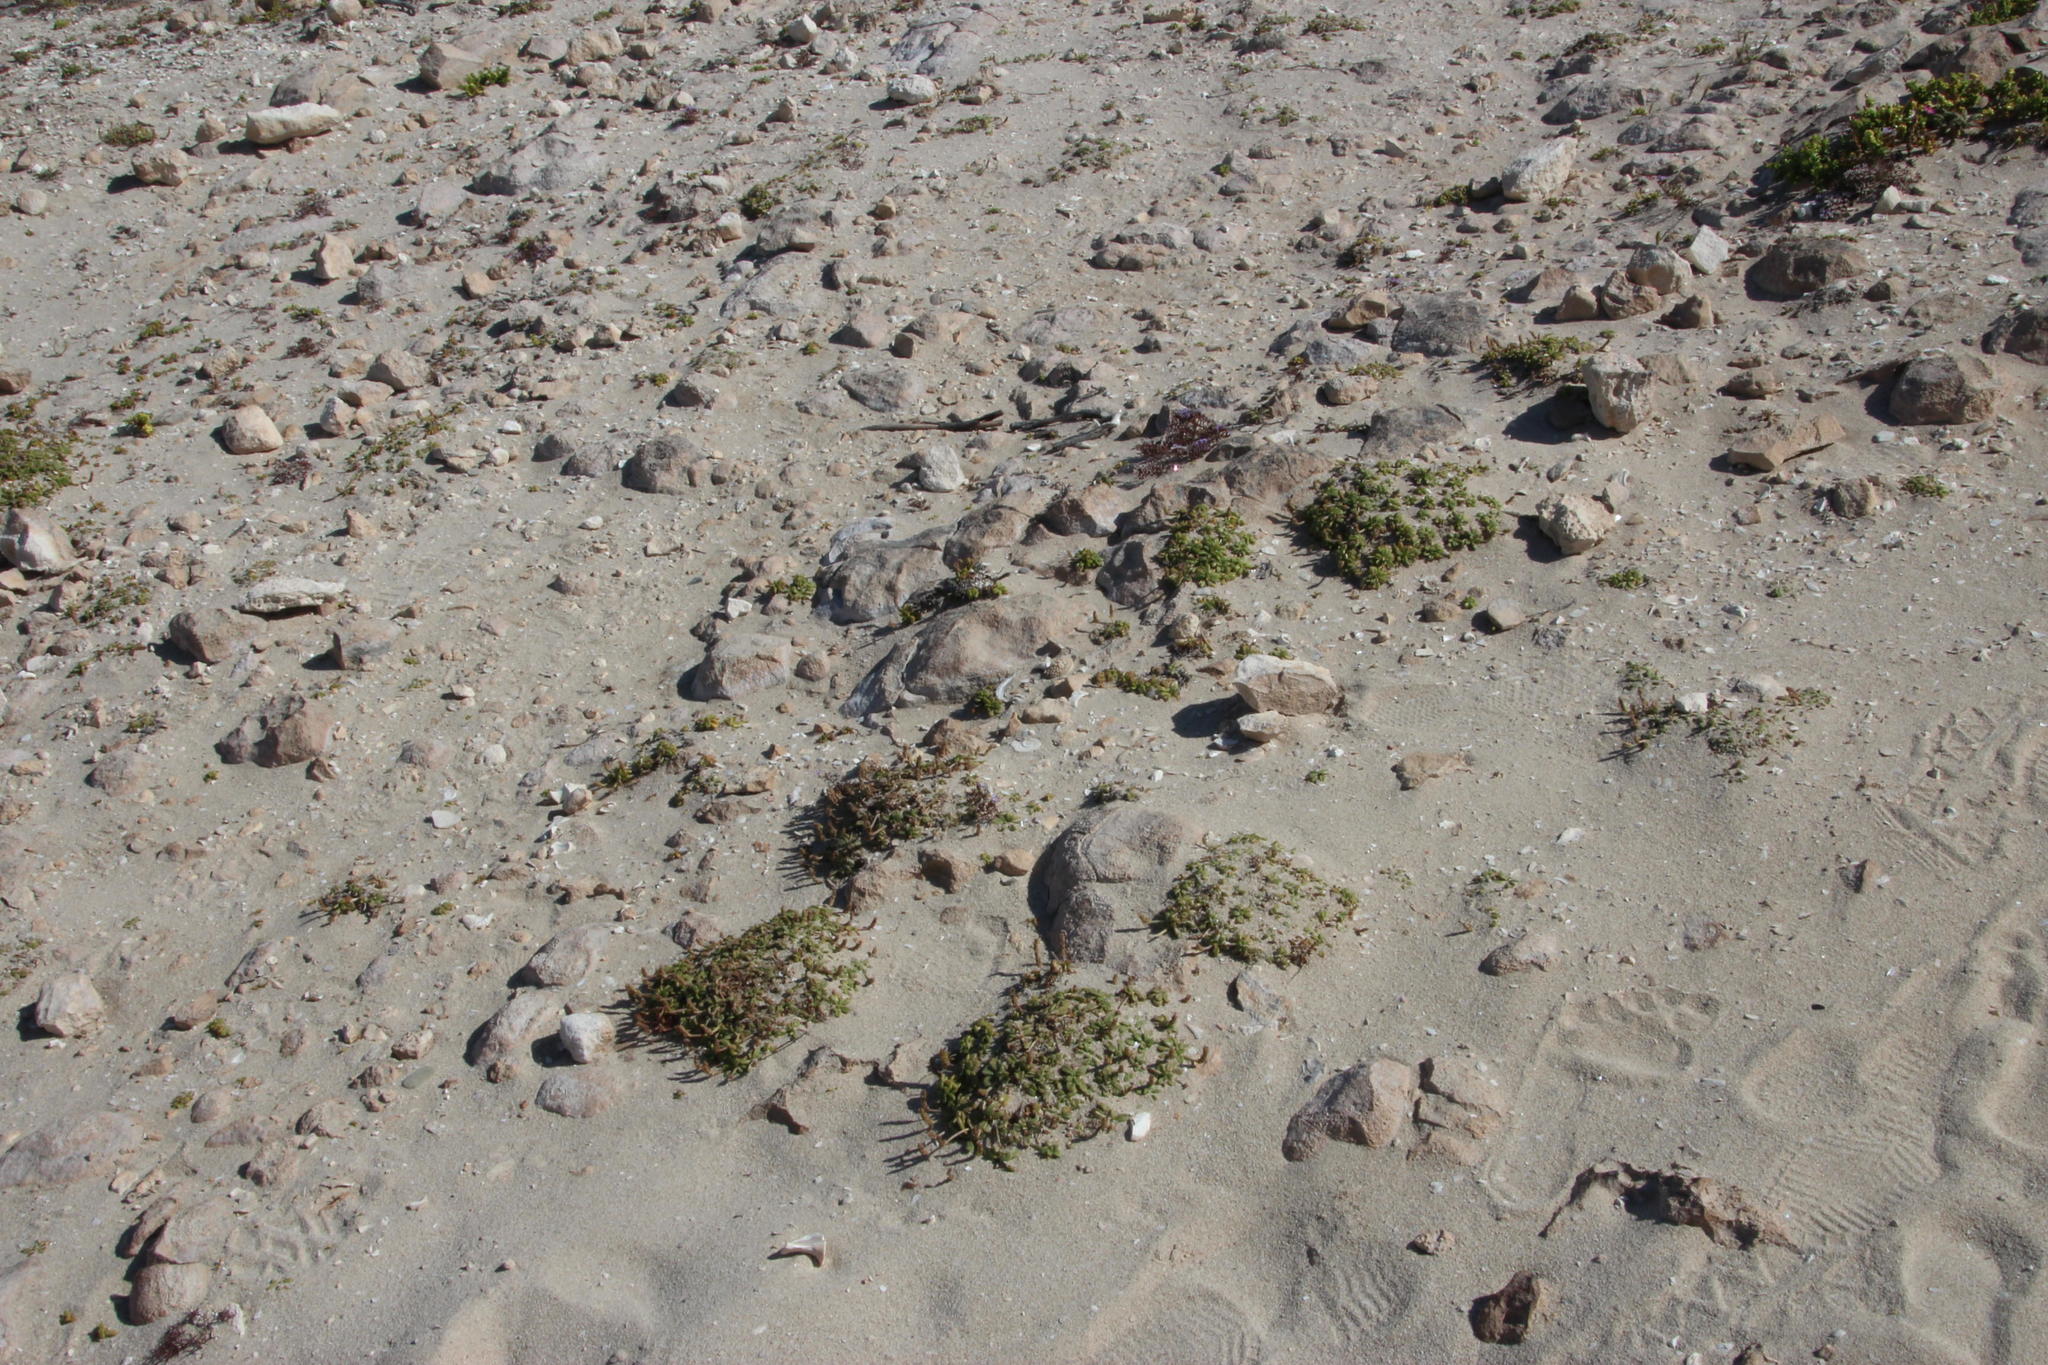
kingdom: Plantae
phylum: Tracheophyta
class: Magnoliopsida
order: Lamiales
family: Plantaginaceae
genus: Plantago
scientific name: Plantago carnosa
